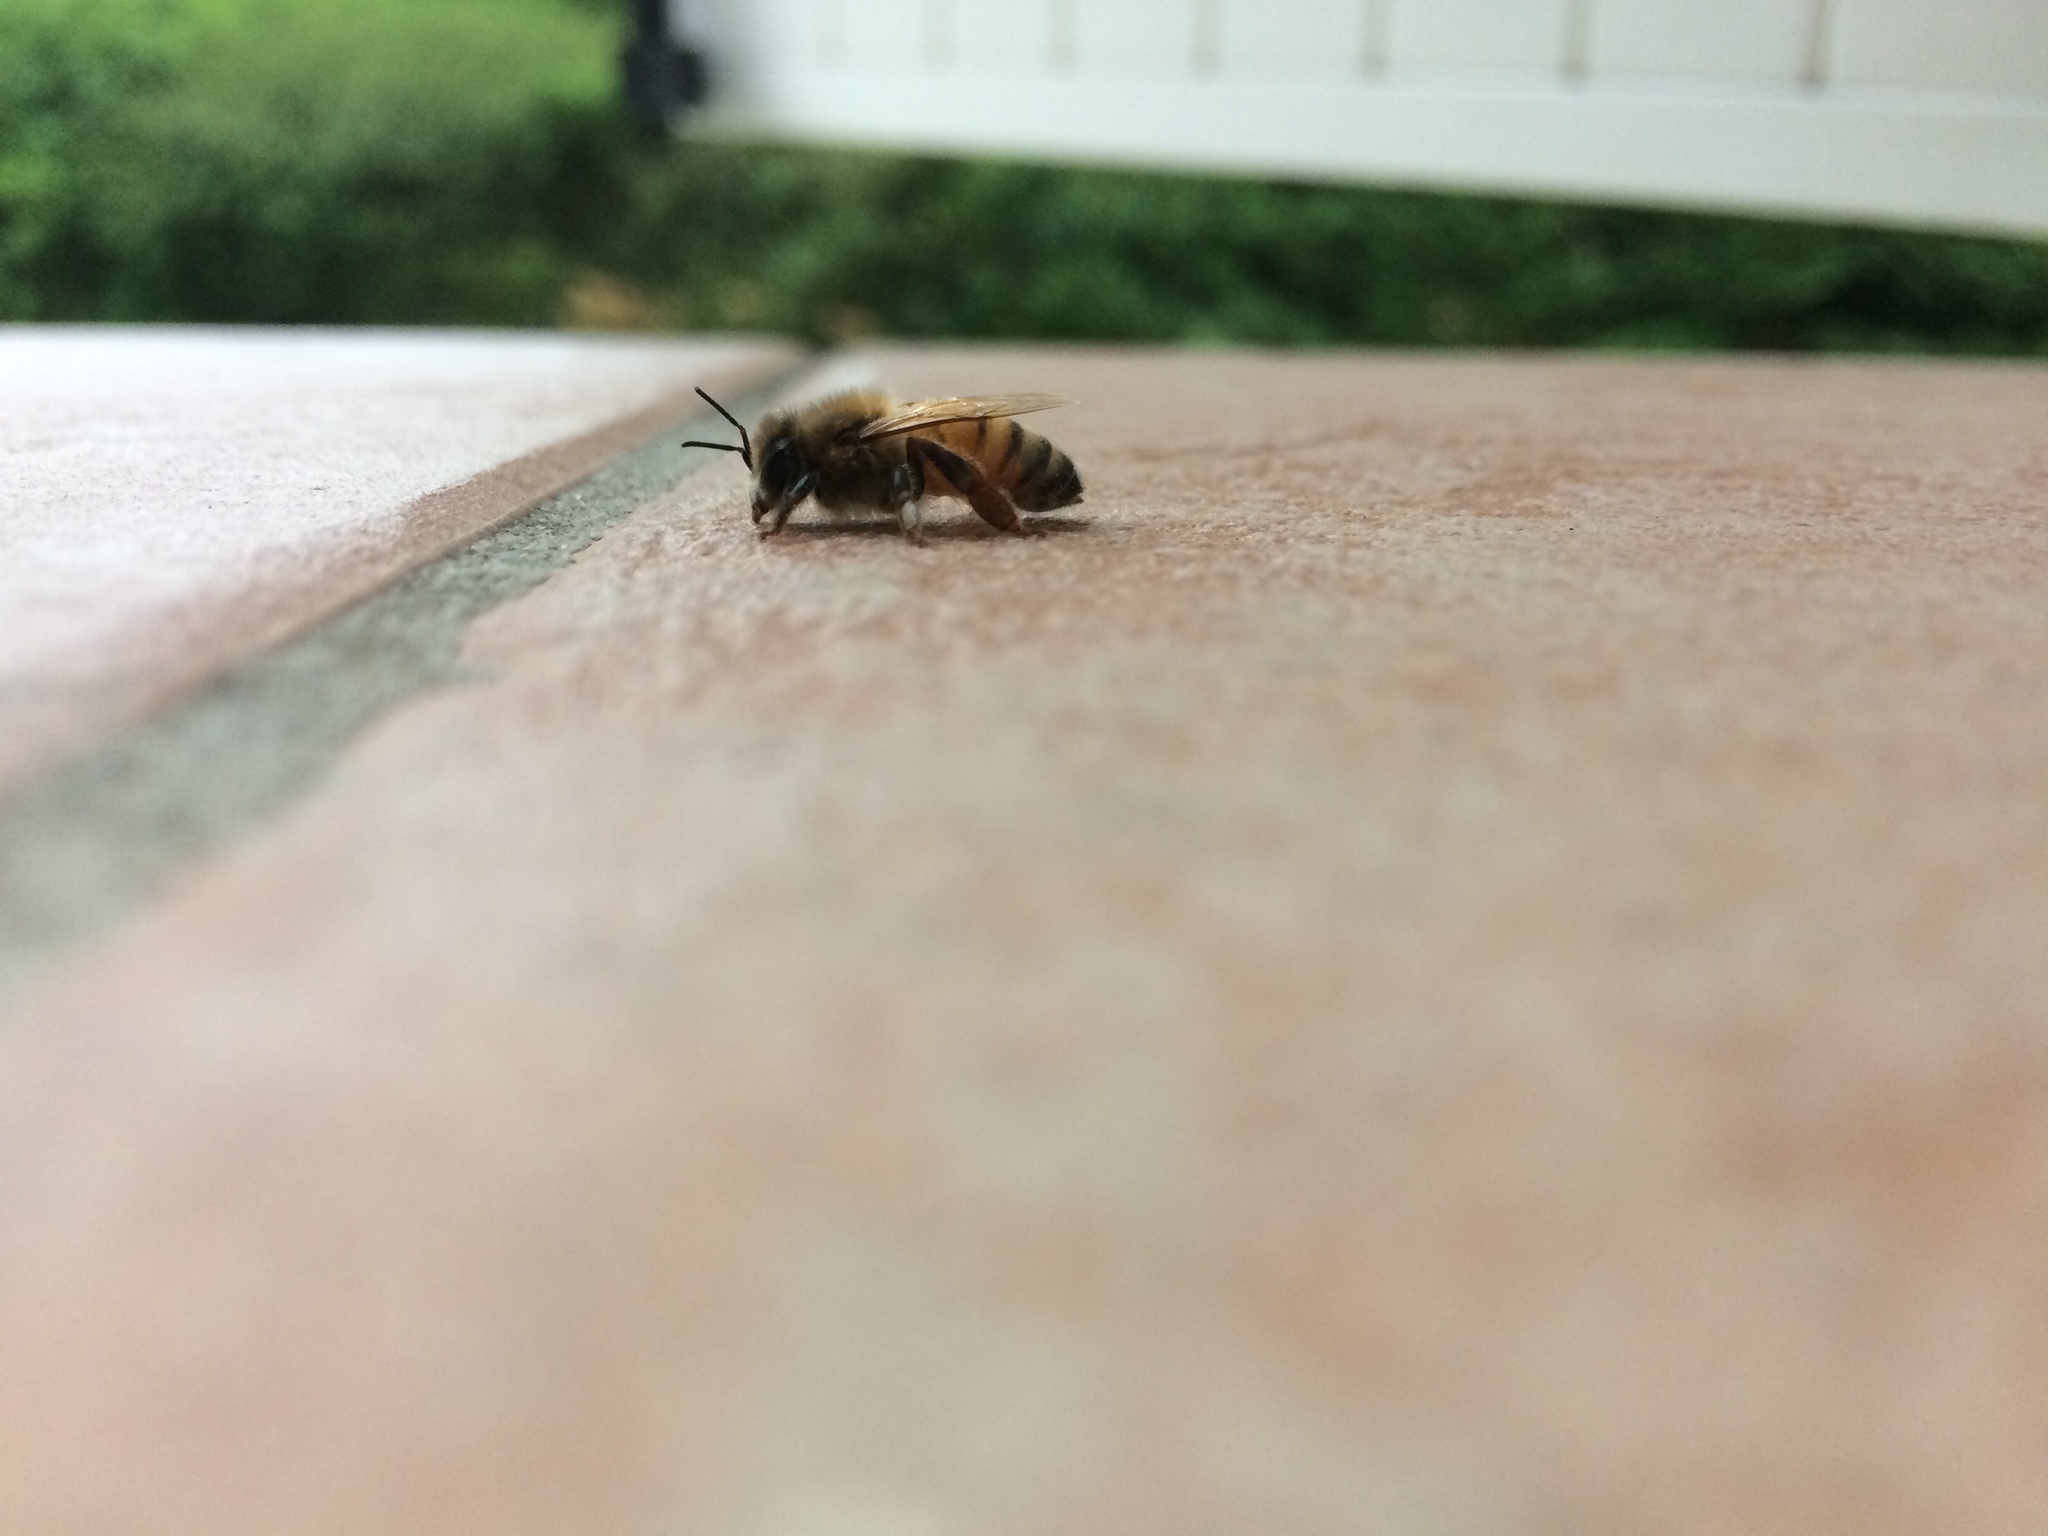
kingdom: Animalia
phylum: Arthropoda
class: Insecta
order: Hymenoptera
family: Apidae
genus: Apis
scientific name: Apis mellifera
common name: Honey bee
